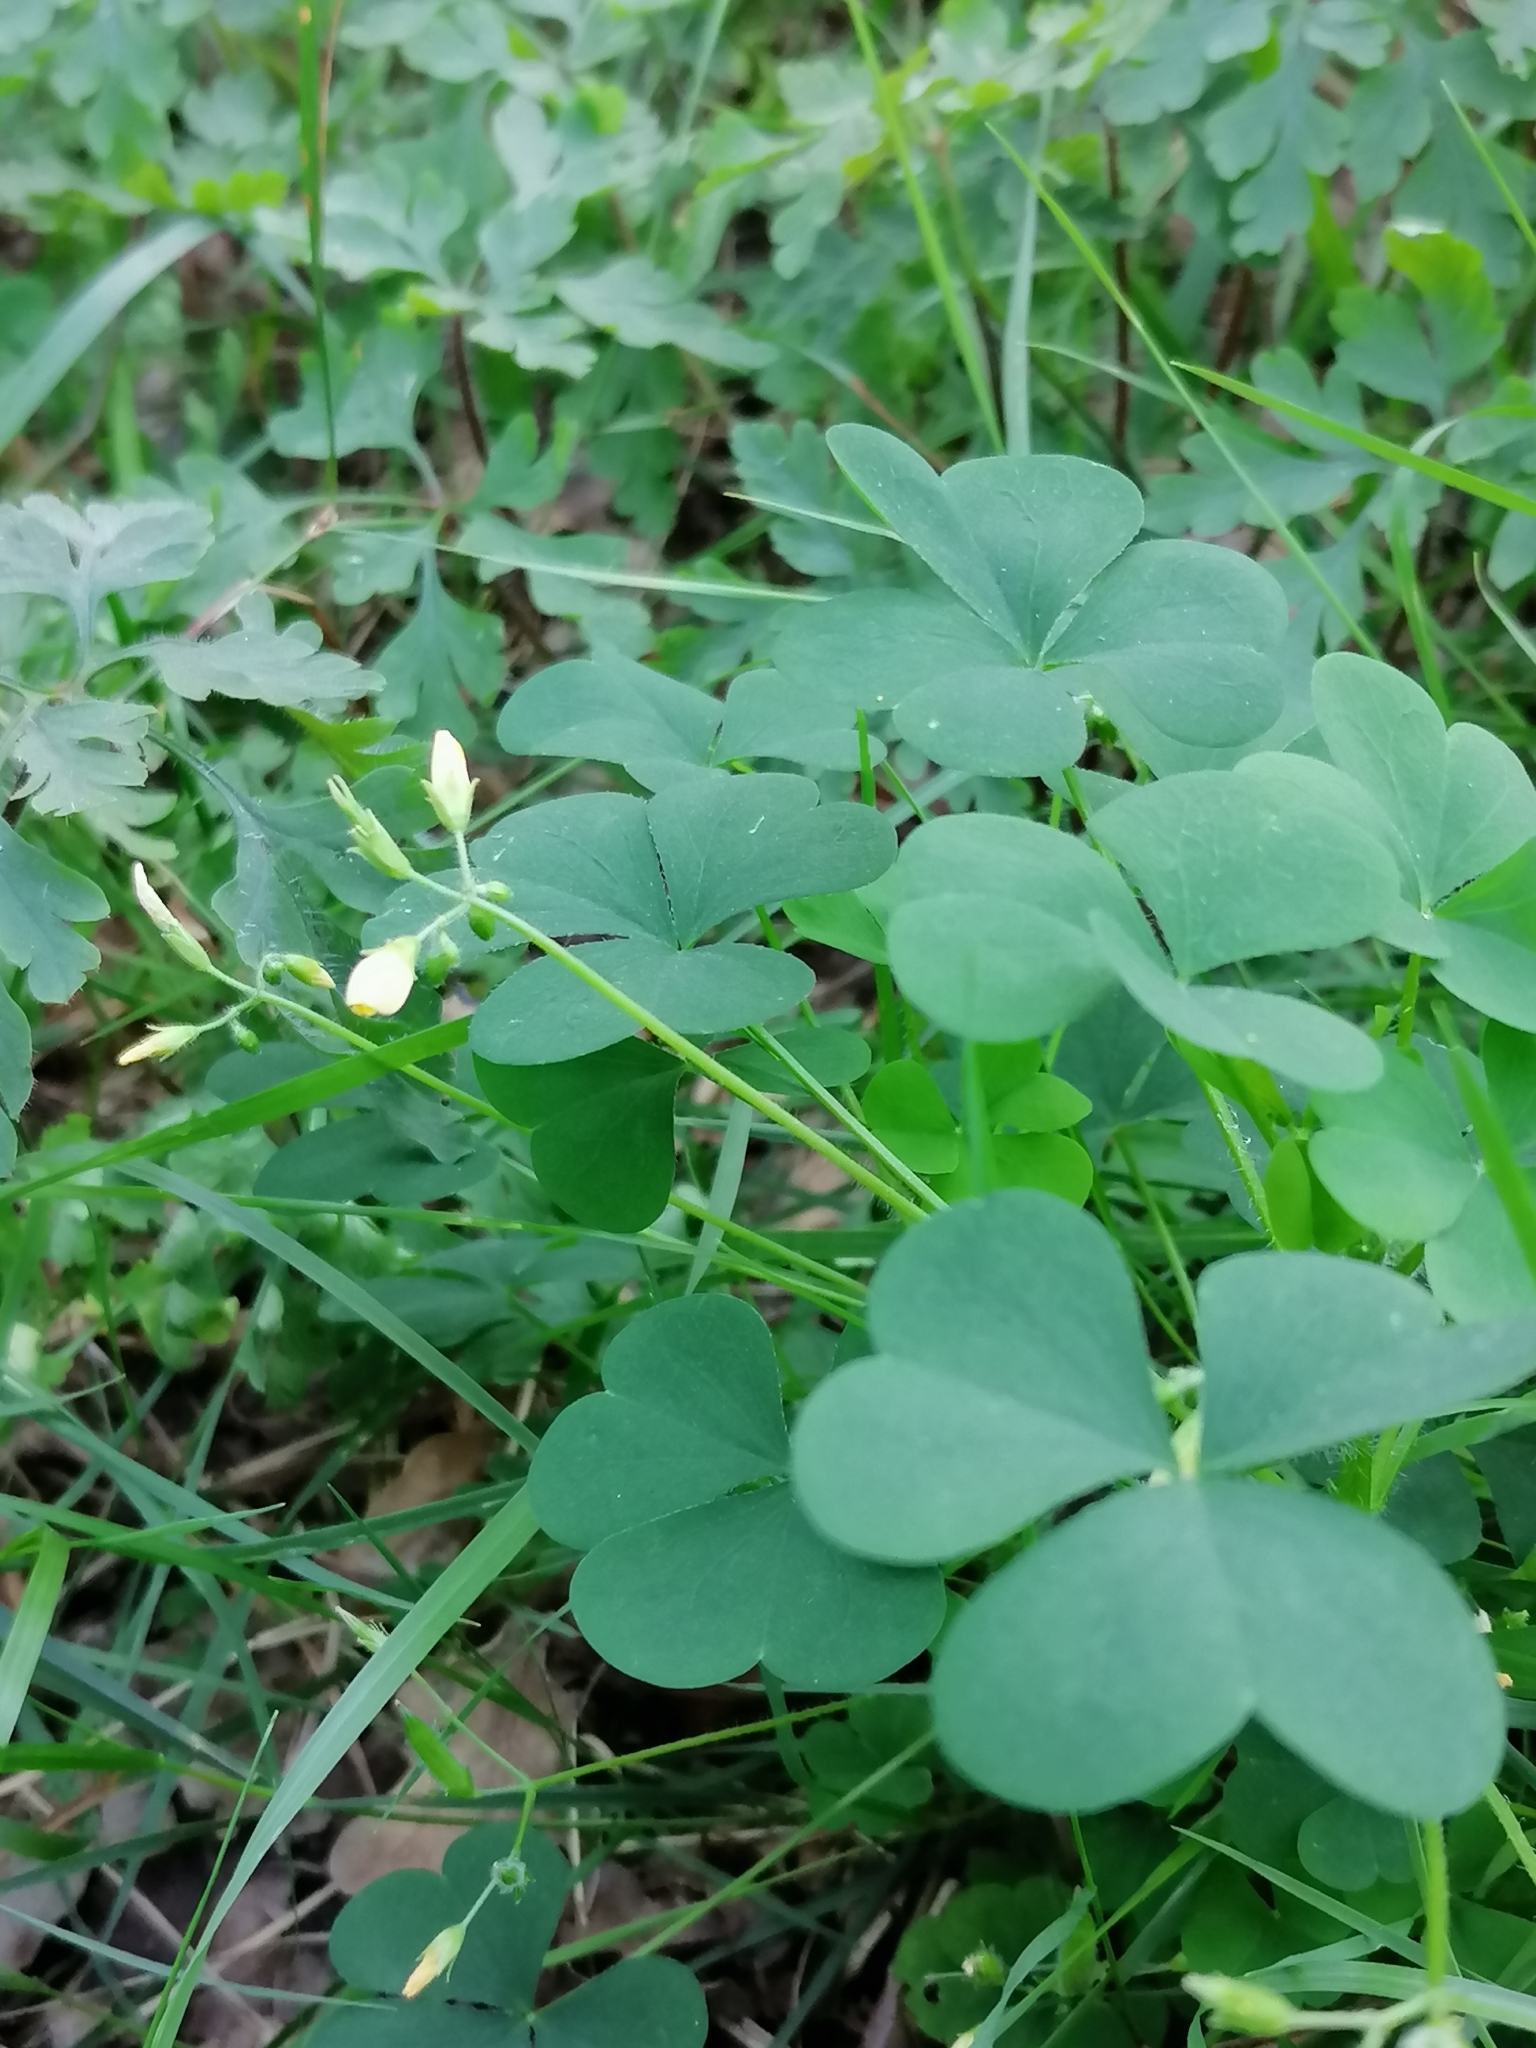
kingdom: Plantae
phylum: Tracheophyta
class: Magnoliopsida
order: Oxalidales
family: Oxalidaceae
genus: Oxalis
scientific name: Oxalis stricta
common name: Upright yellow-sorrel
